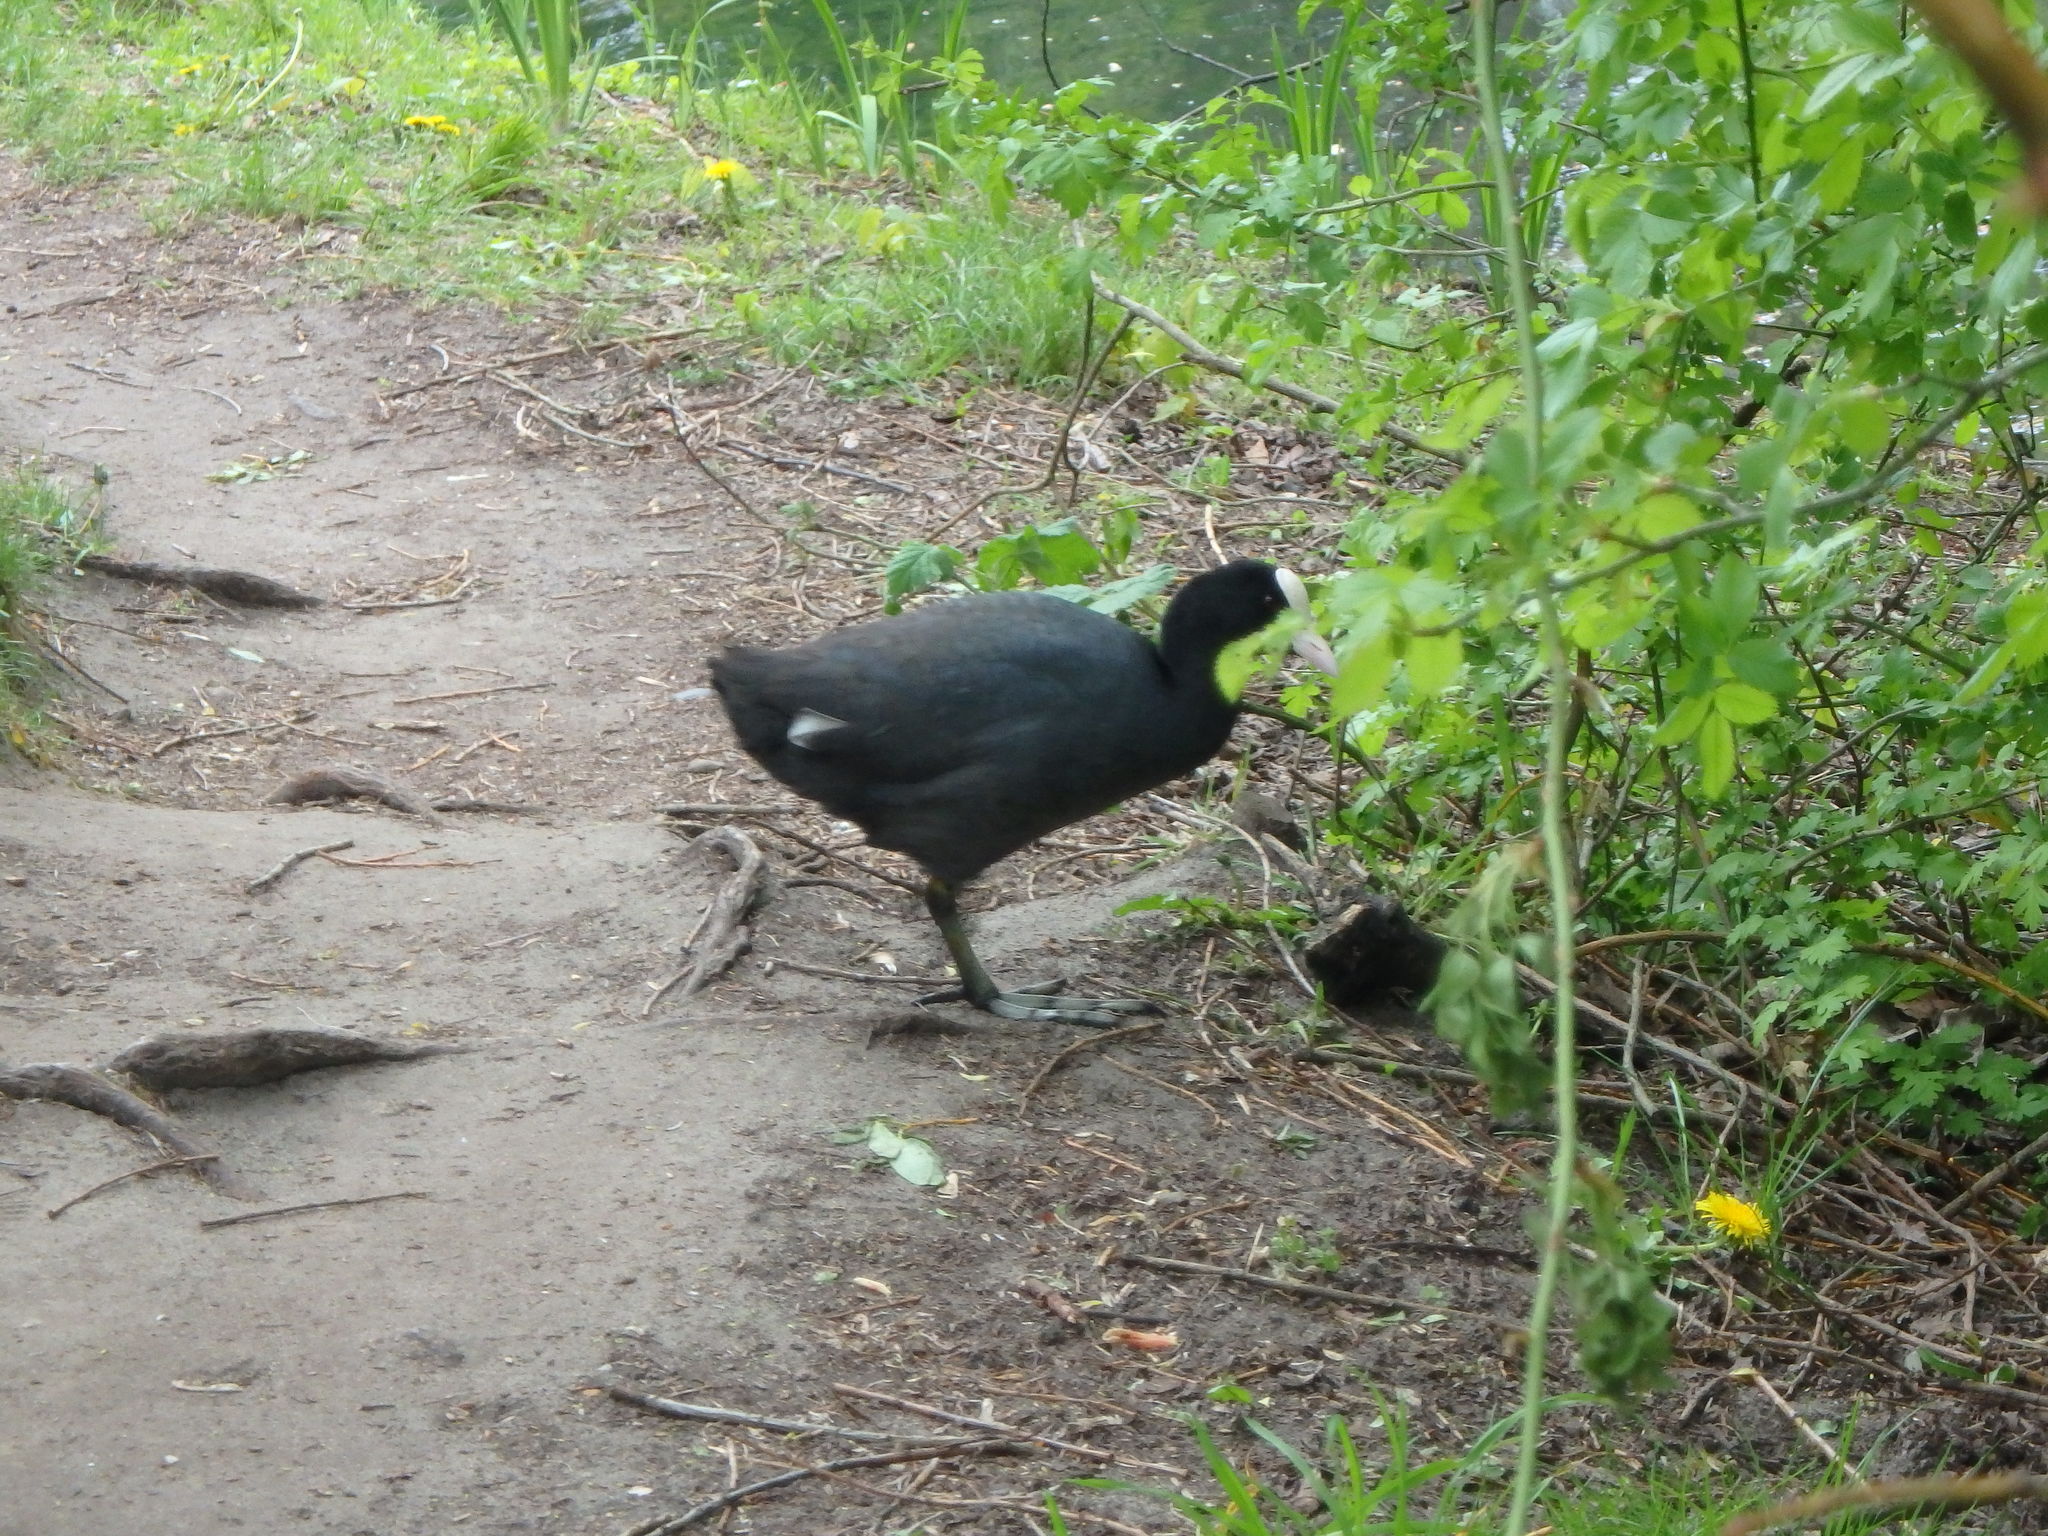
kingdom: Animalia
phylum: Chordata
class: Aves
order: Gruiformes
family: Rallidae
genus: Fulica
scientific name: Fulica atra
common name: Eurasian coot
